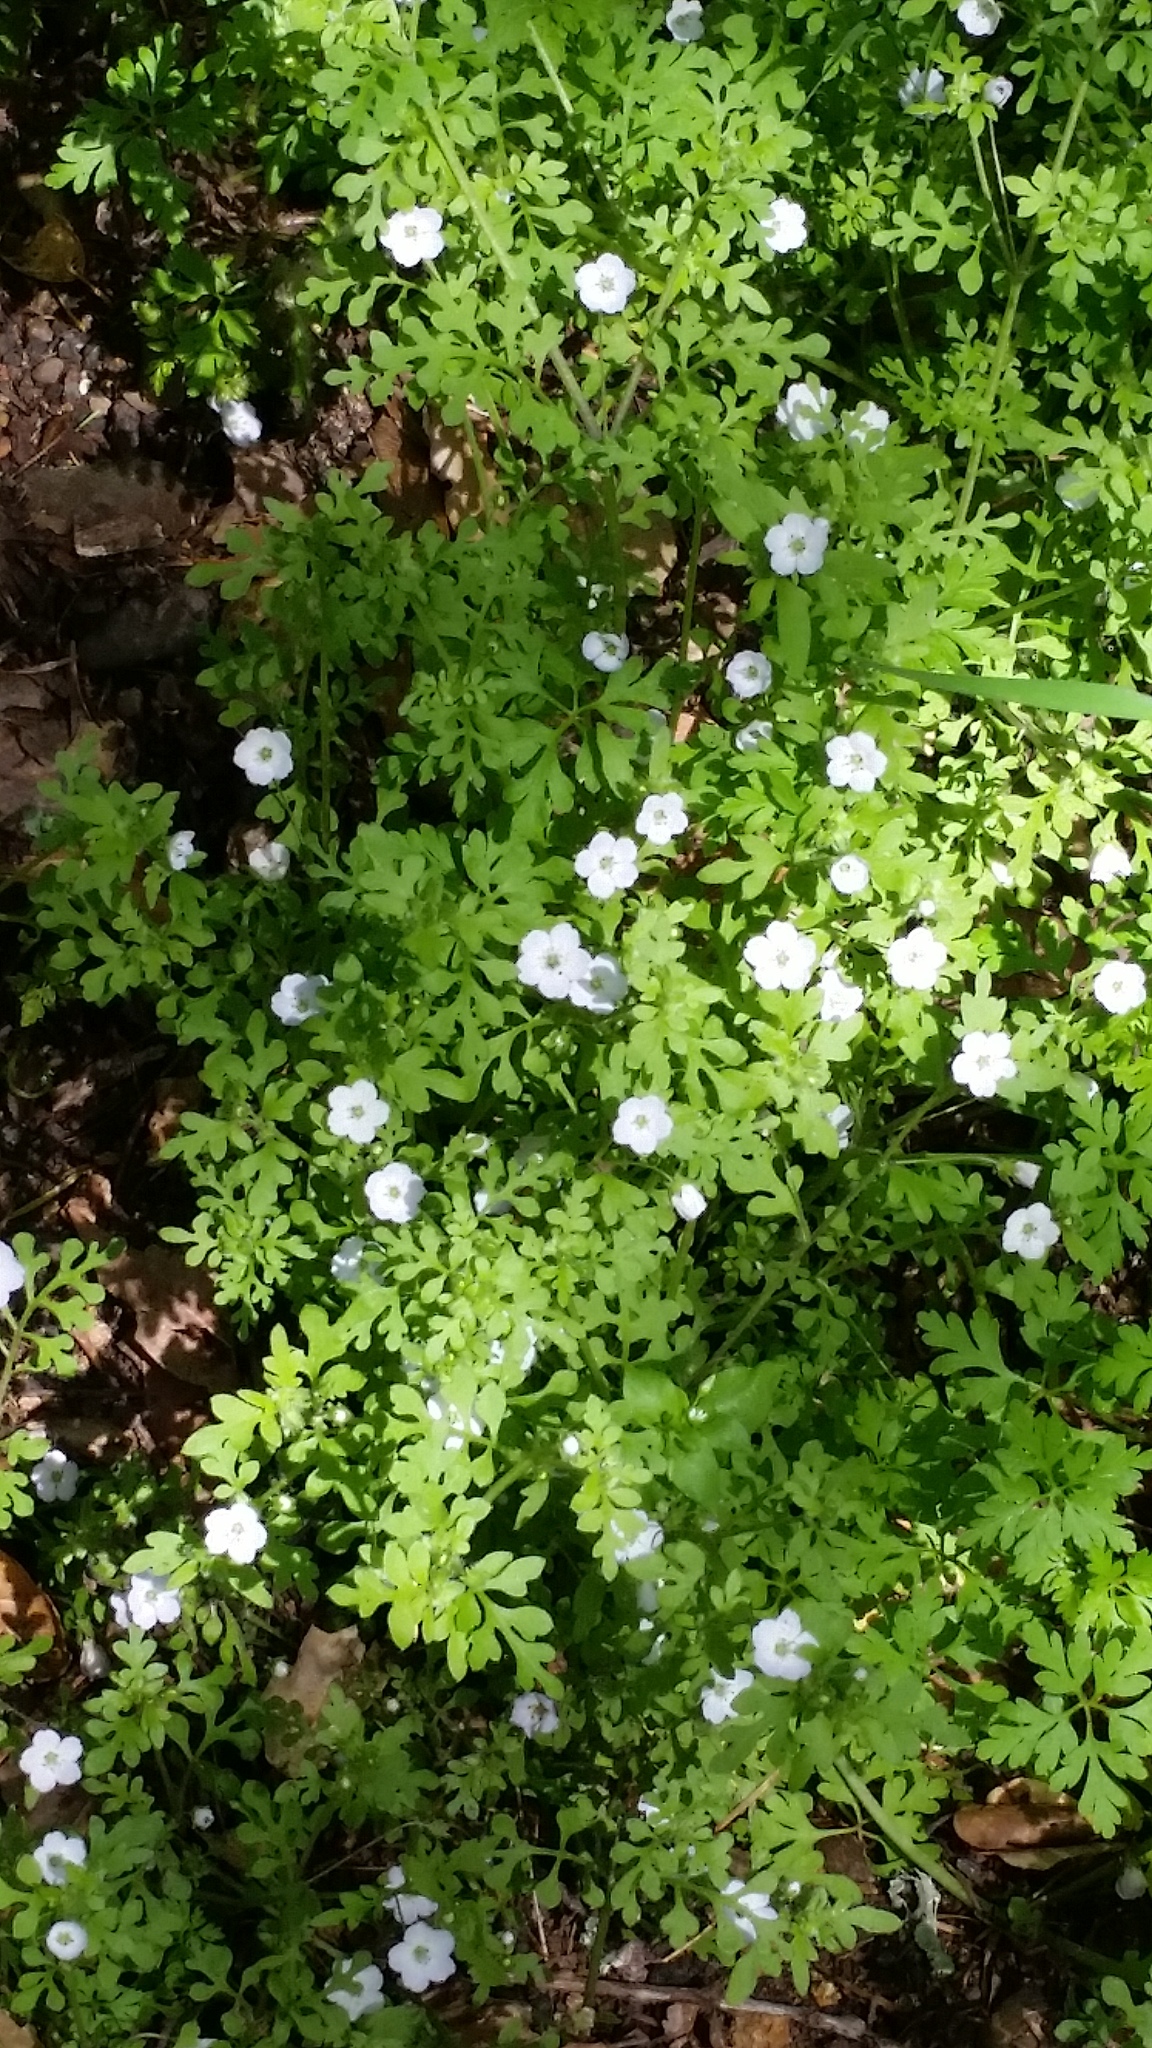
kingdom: Plantae
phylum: Tracheophyta
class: Magnoliopsida
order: Boraginales
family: Hydrophyllaceae
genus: Nemophila
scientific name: Nemophila heterophylla
